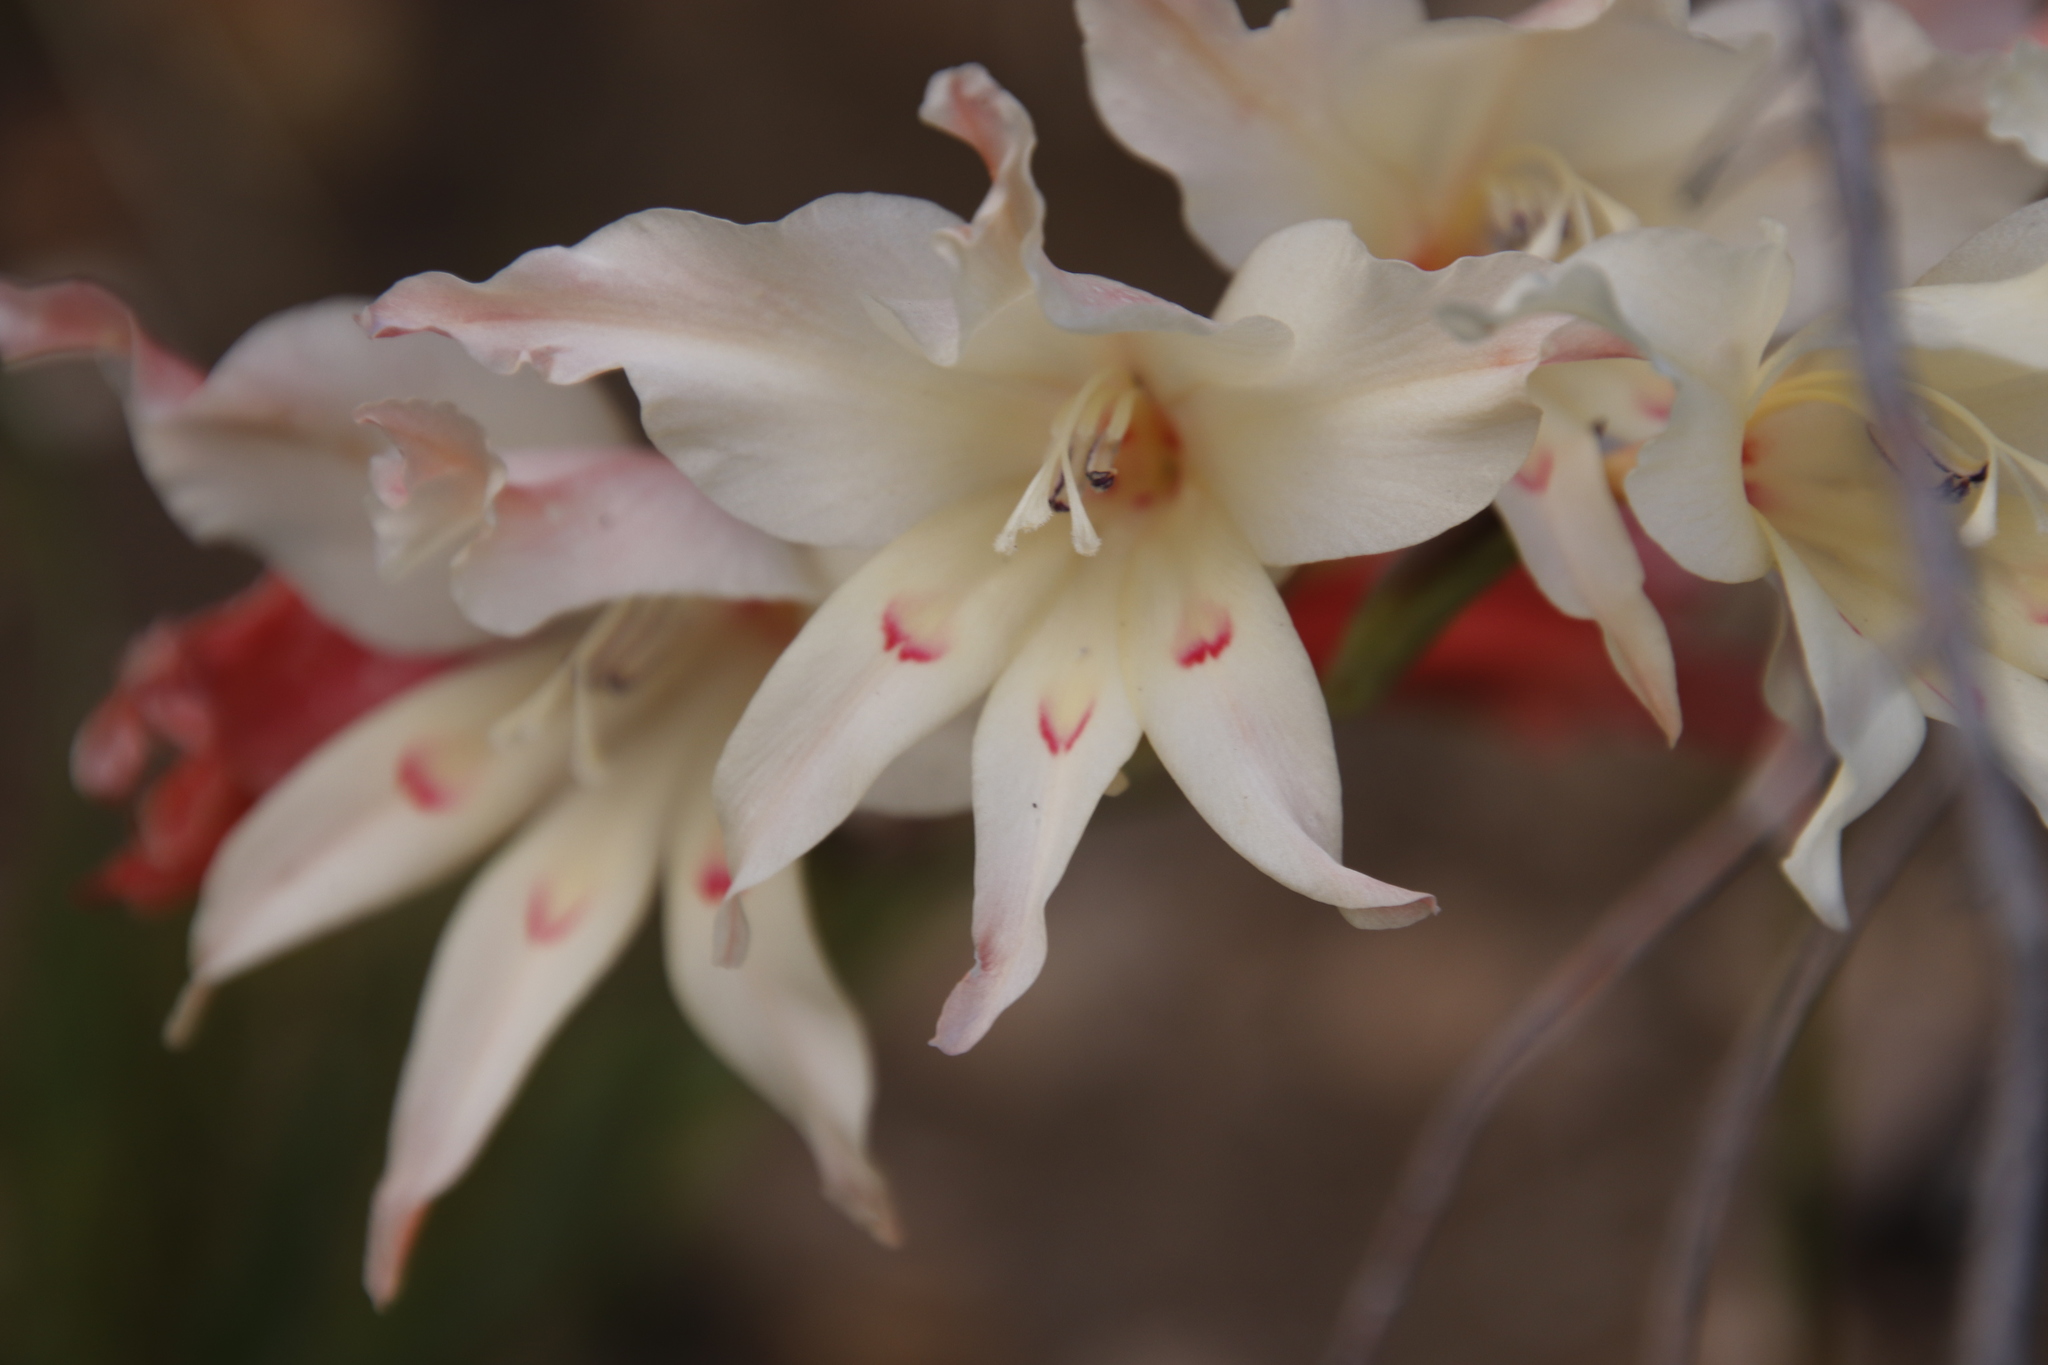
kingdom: Plantae
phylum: Tracheophyta
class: Liliopsida
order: Asparagales
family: Iridaceae
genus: Gladiolus
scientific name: Gladiolus undulatus
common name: Large painted-lady
